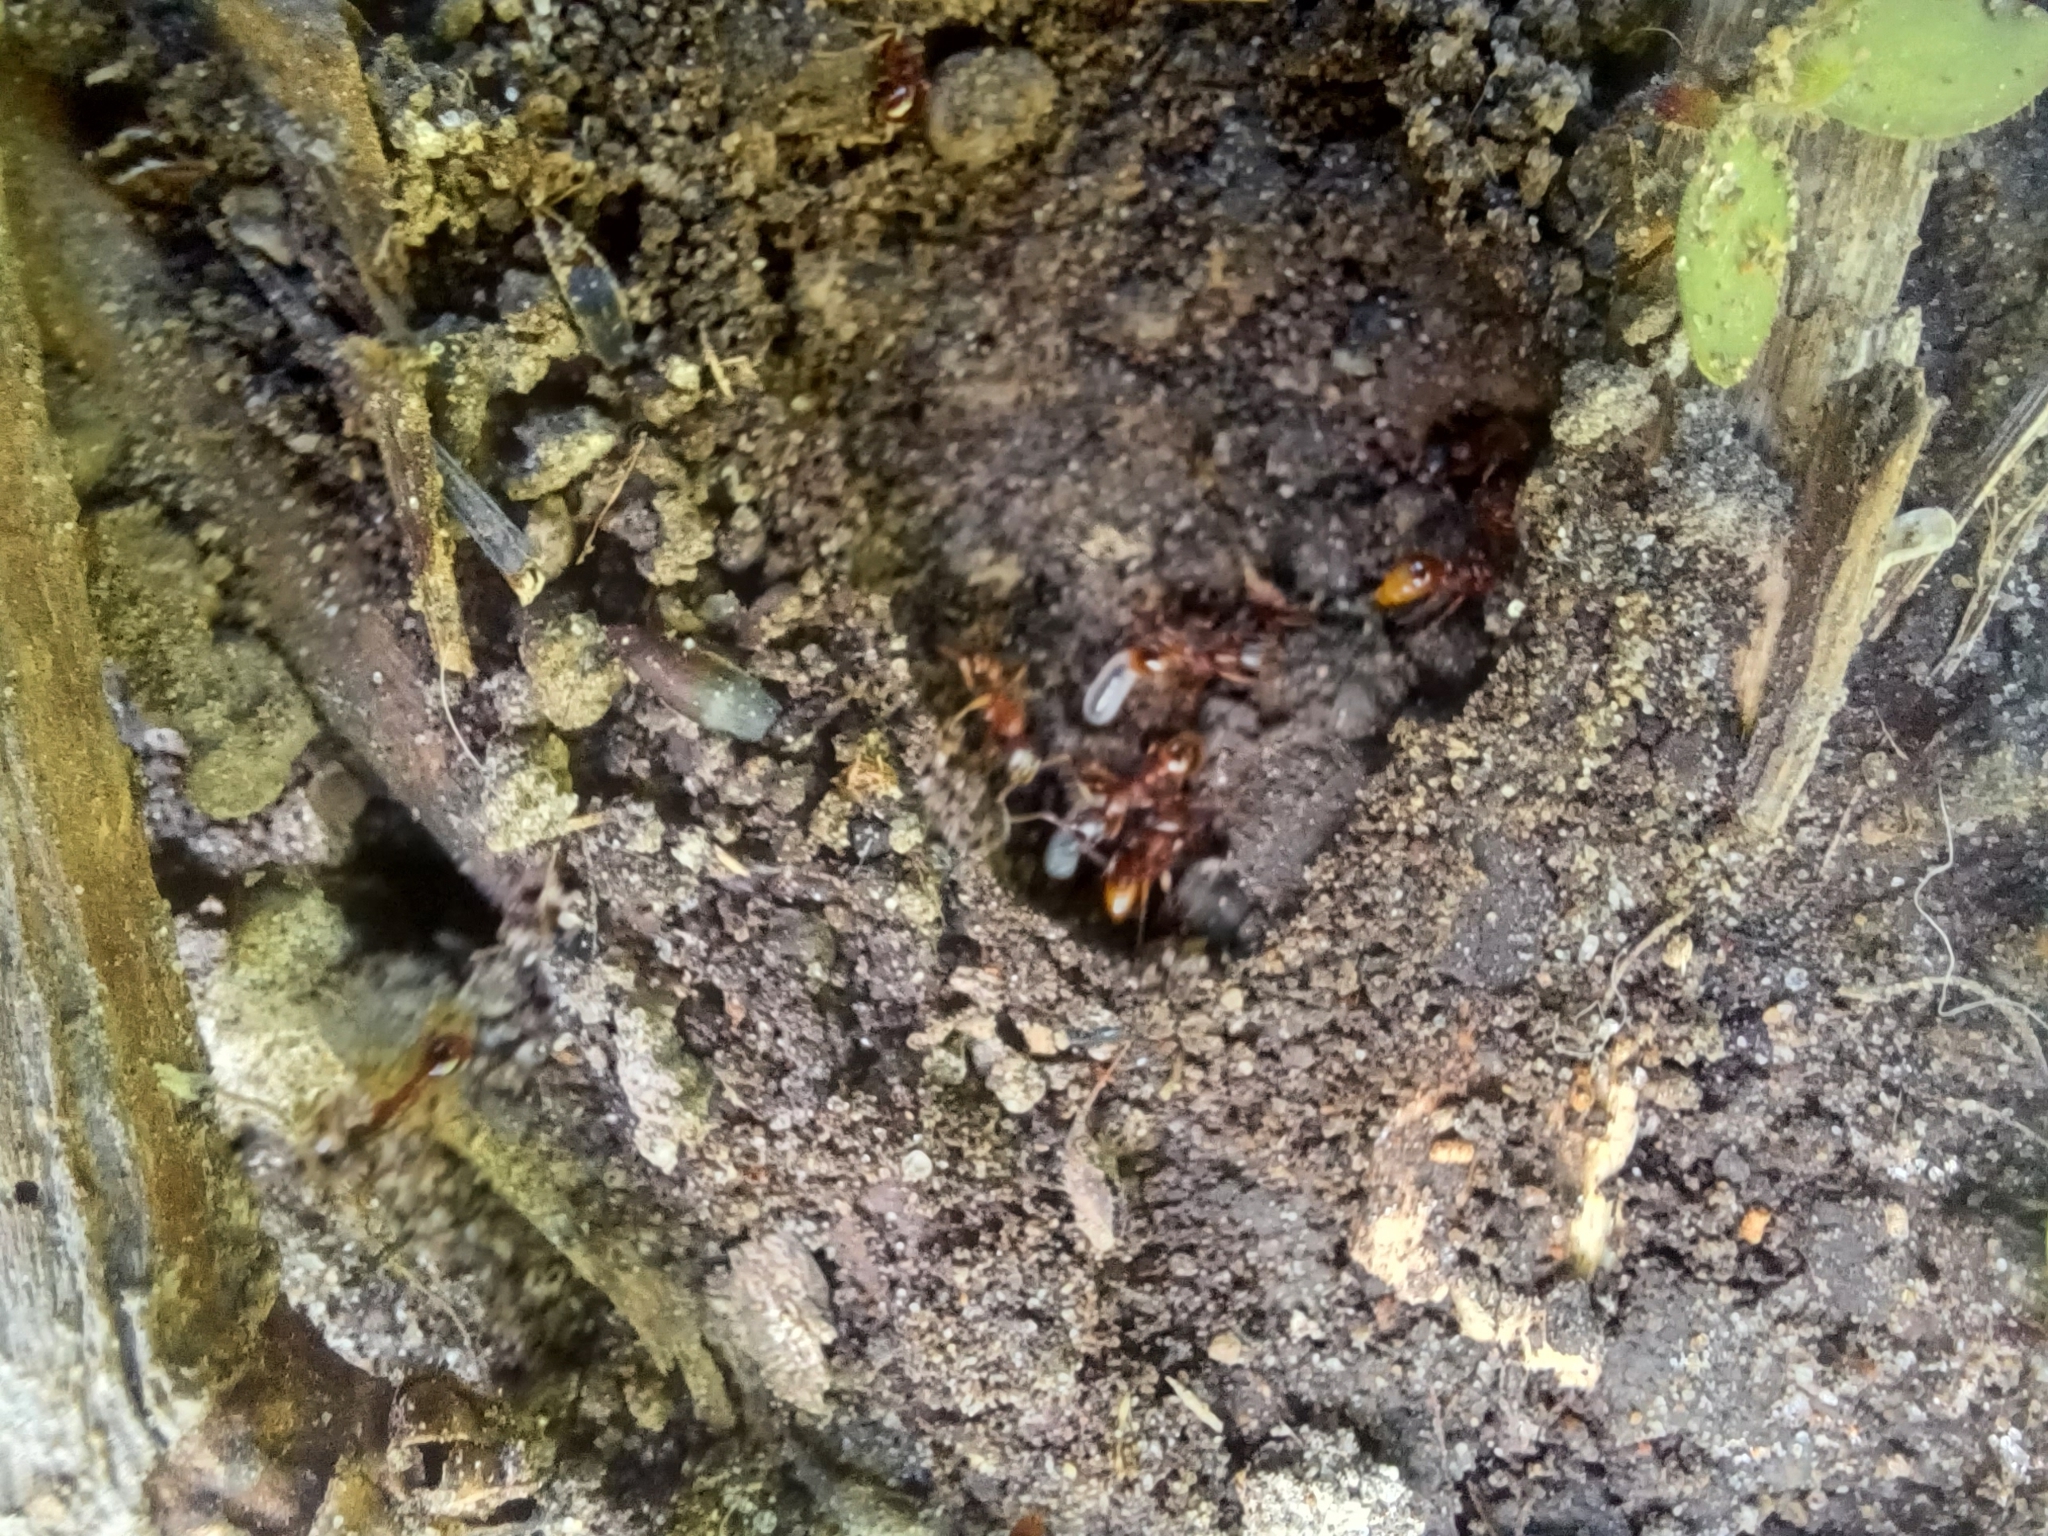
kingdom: Animalia
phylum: Arthropoda
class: Insecta
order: Hymenoptera
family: Formicidae
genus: Myrmica
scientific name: Myrmica rubra
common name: European fire ant
